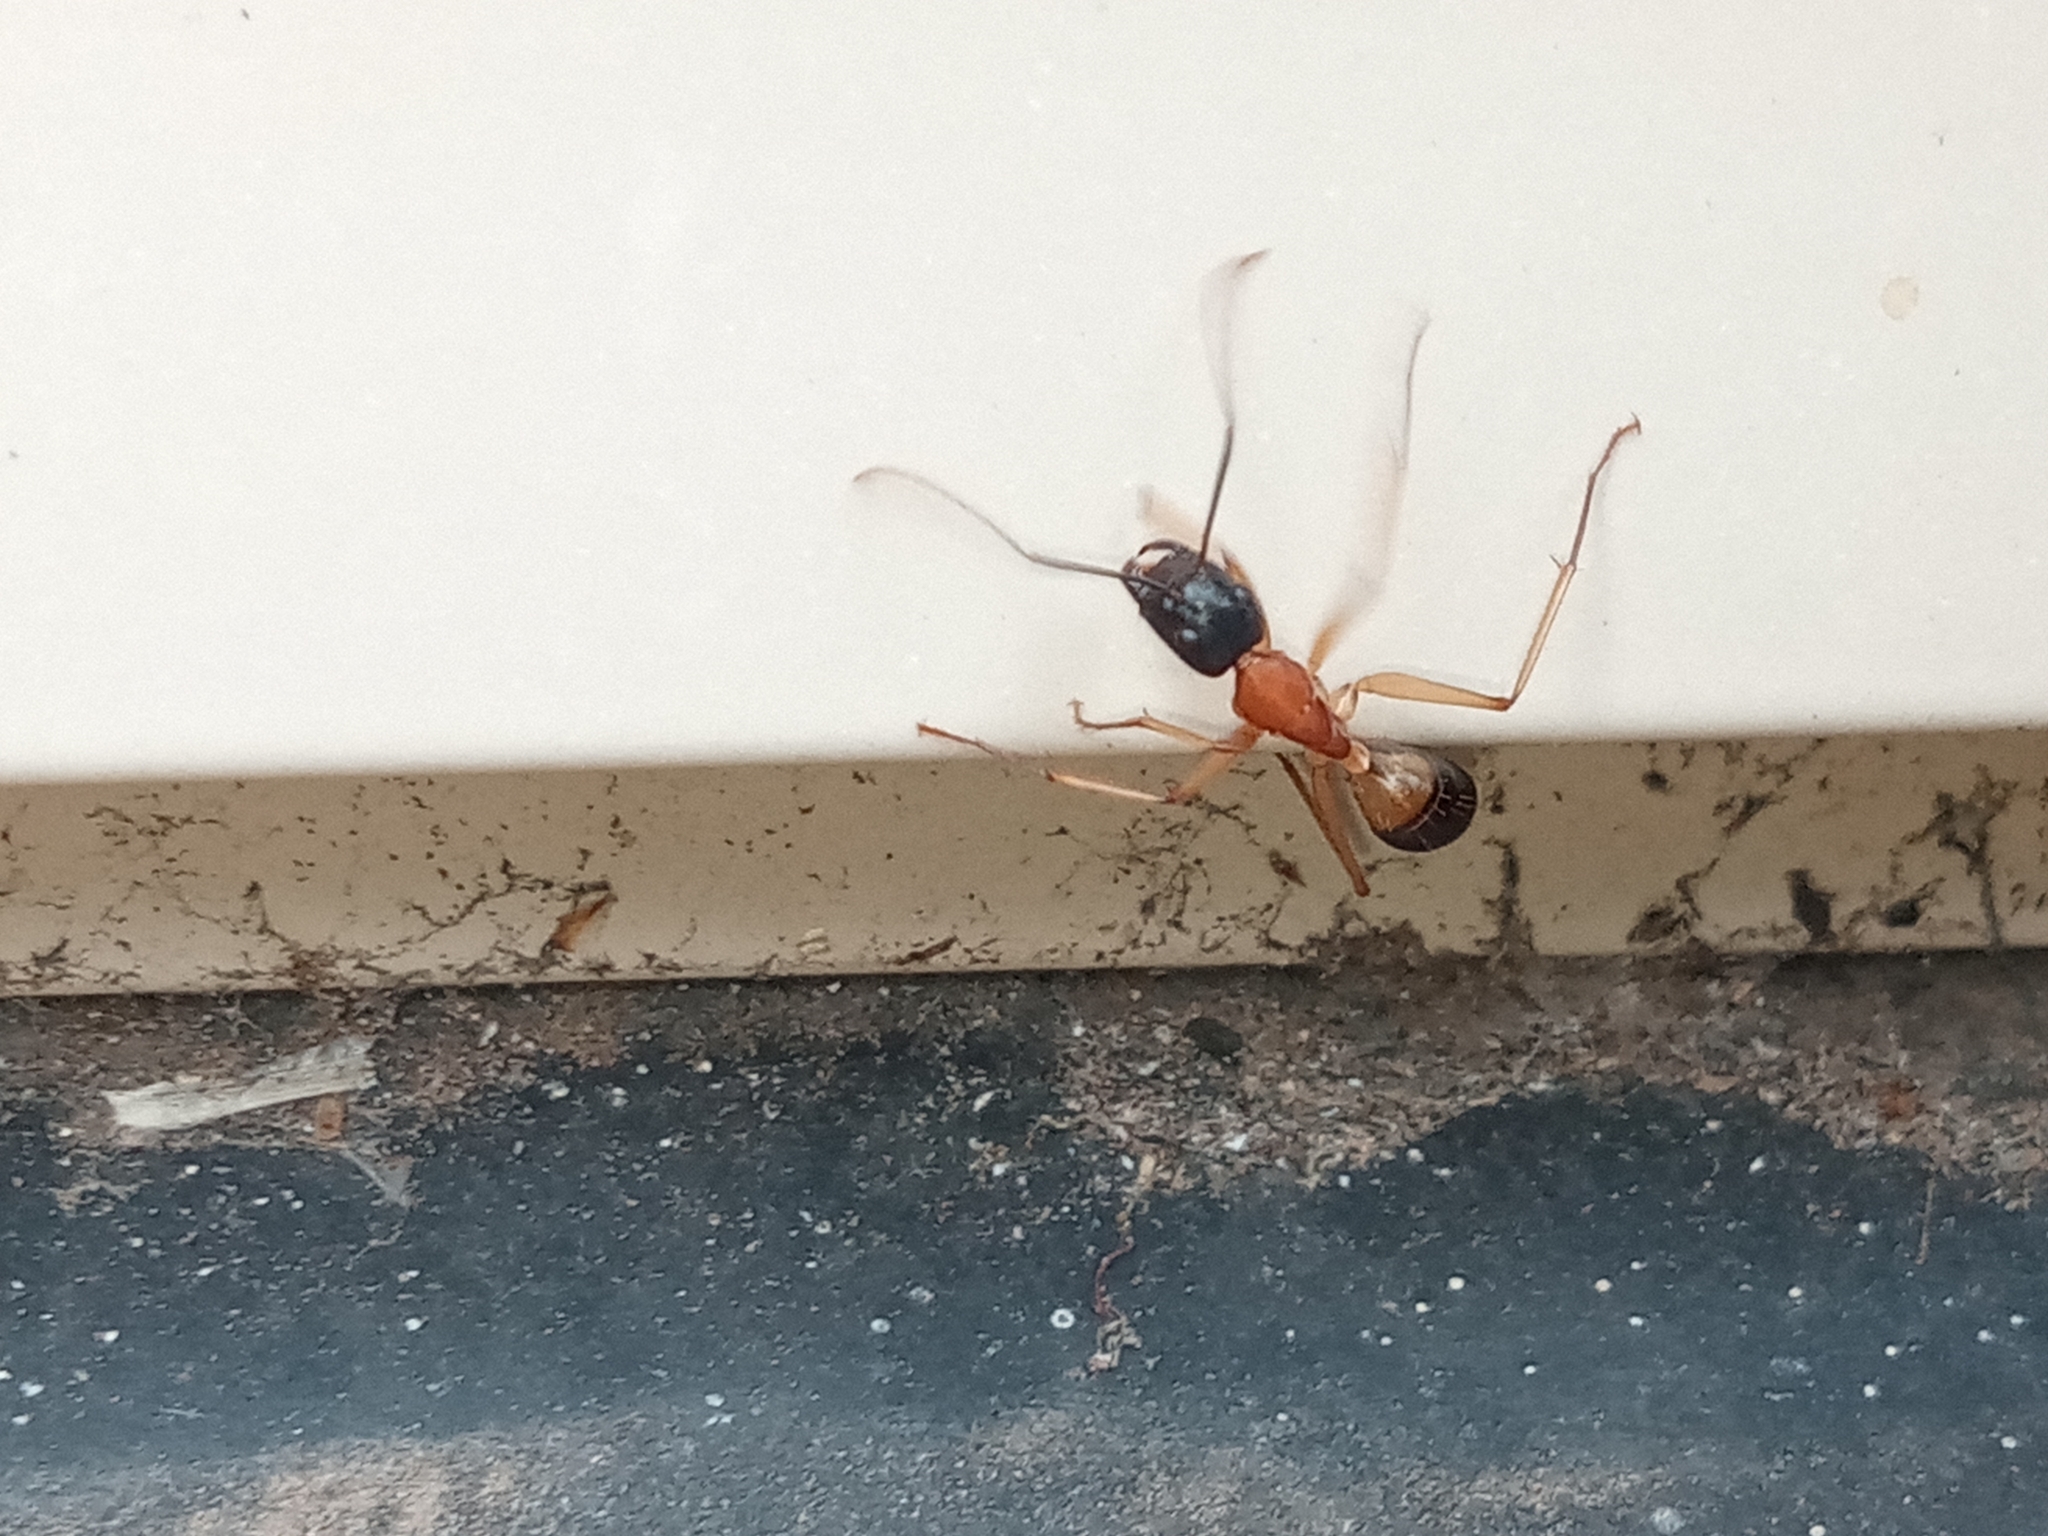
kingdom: Animalia
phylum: Arthropoda
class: Insecta
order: Hymenoptera
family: Formicidae
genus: Camponotus
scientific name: Camponotus consobrinus
